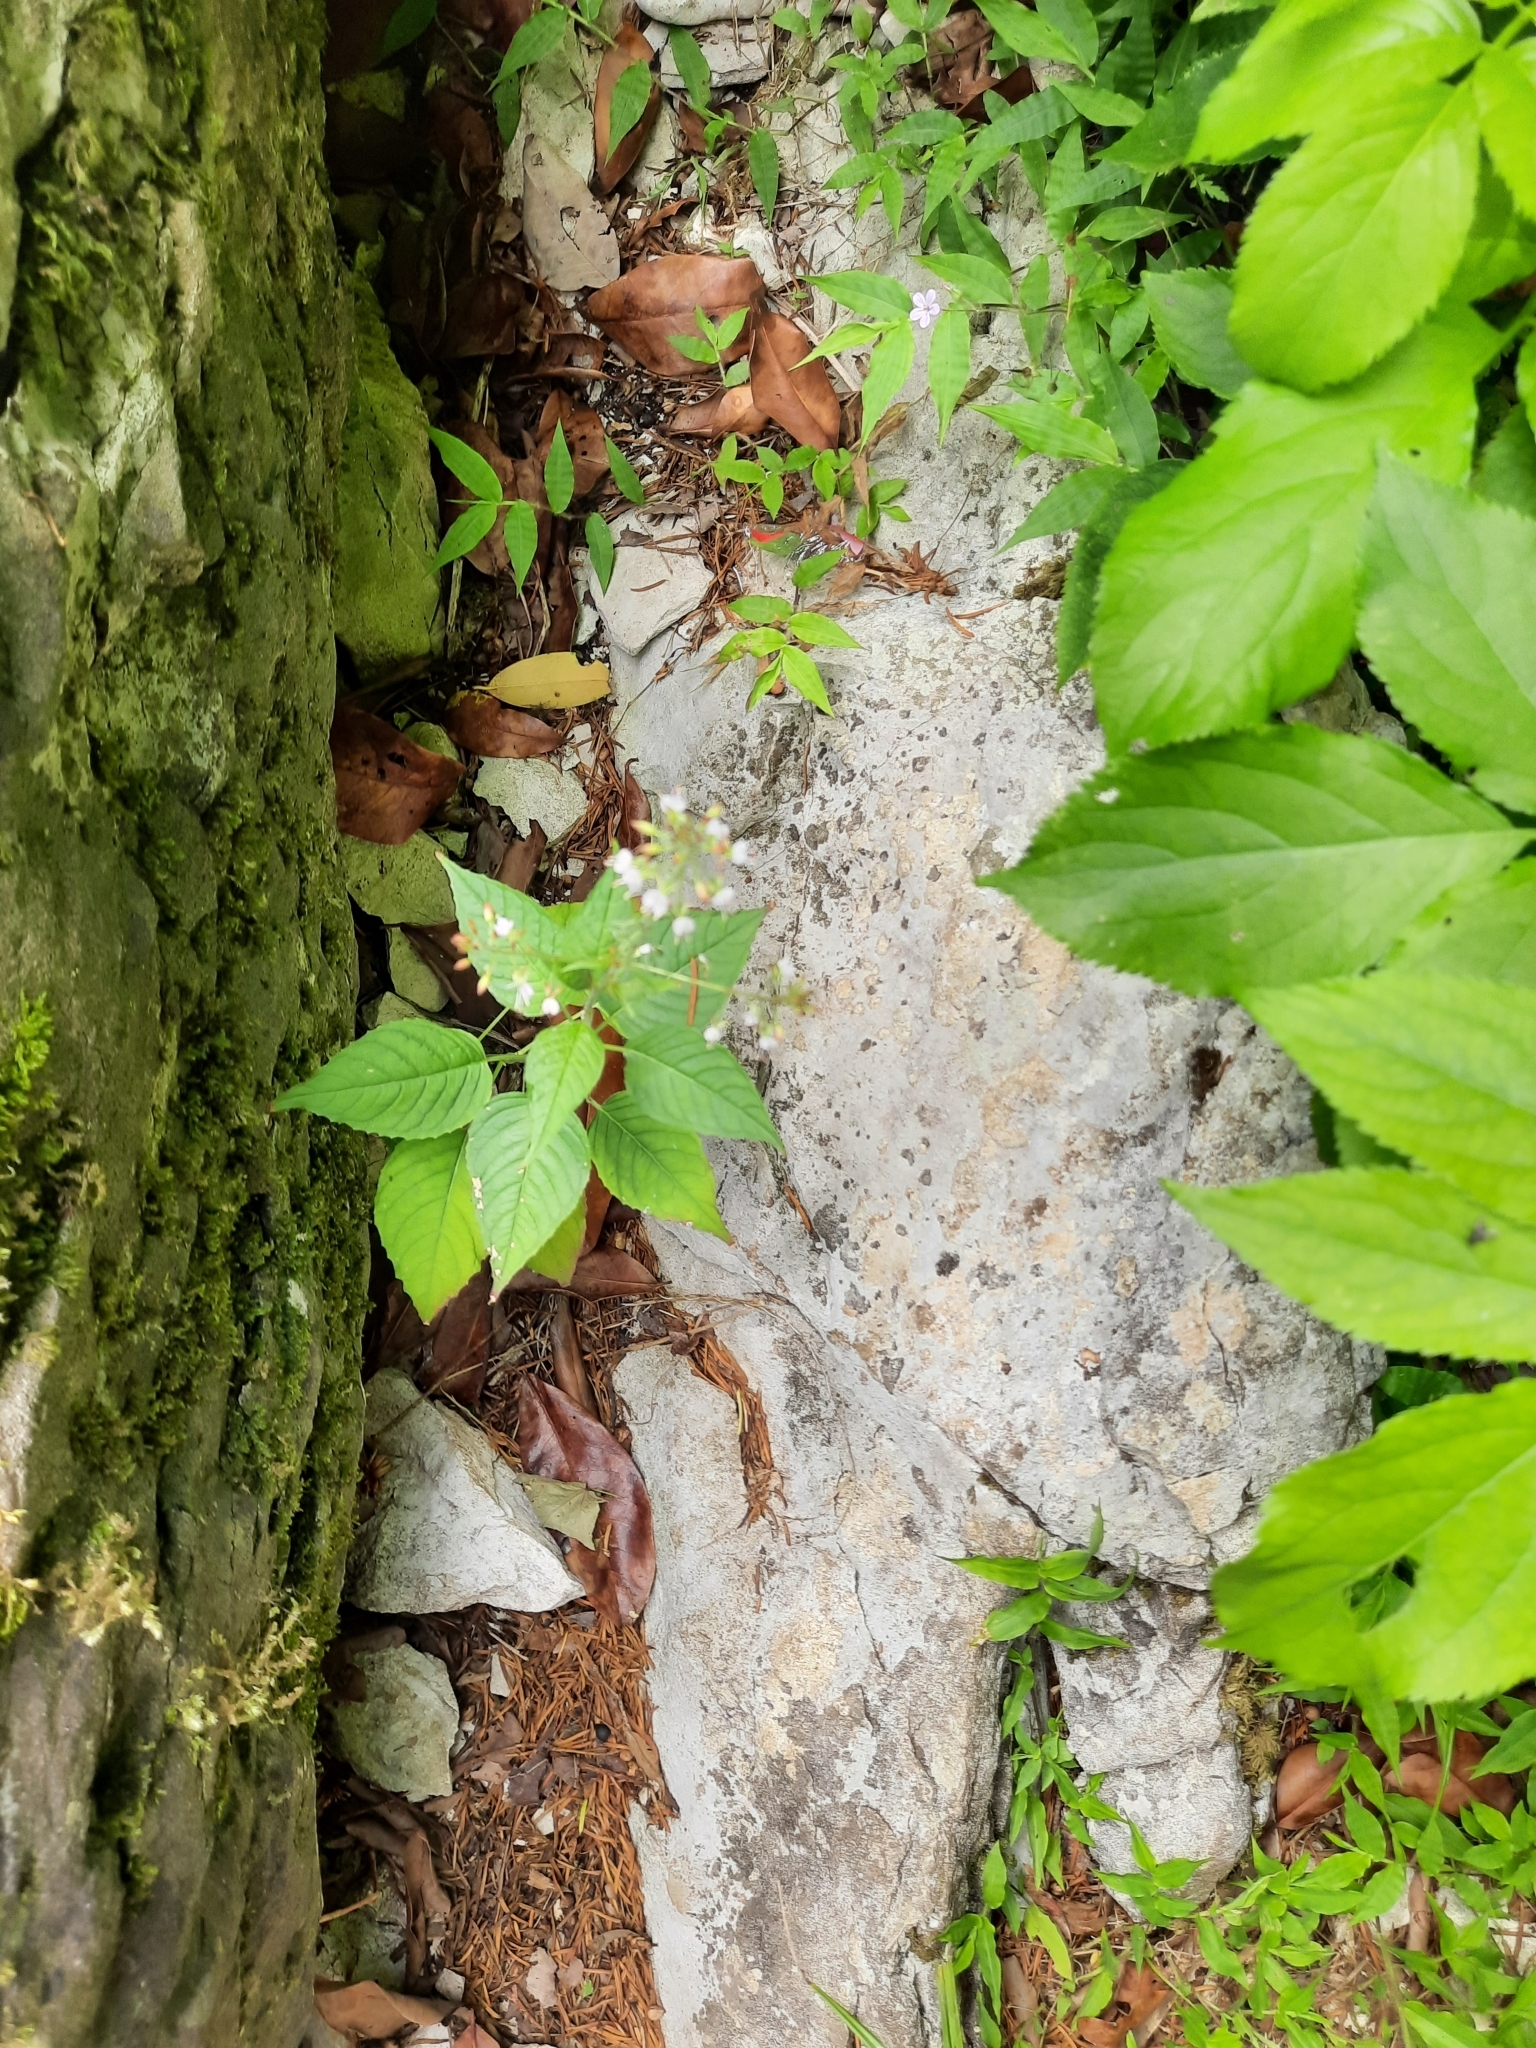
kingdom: Plantae
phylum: Tracheophyta
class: Magnoliopsida
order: Myrtales
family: Onagraceae
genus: Circaea
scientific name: Circaea lutetiana
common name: Enchanter's-nightshade
